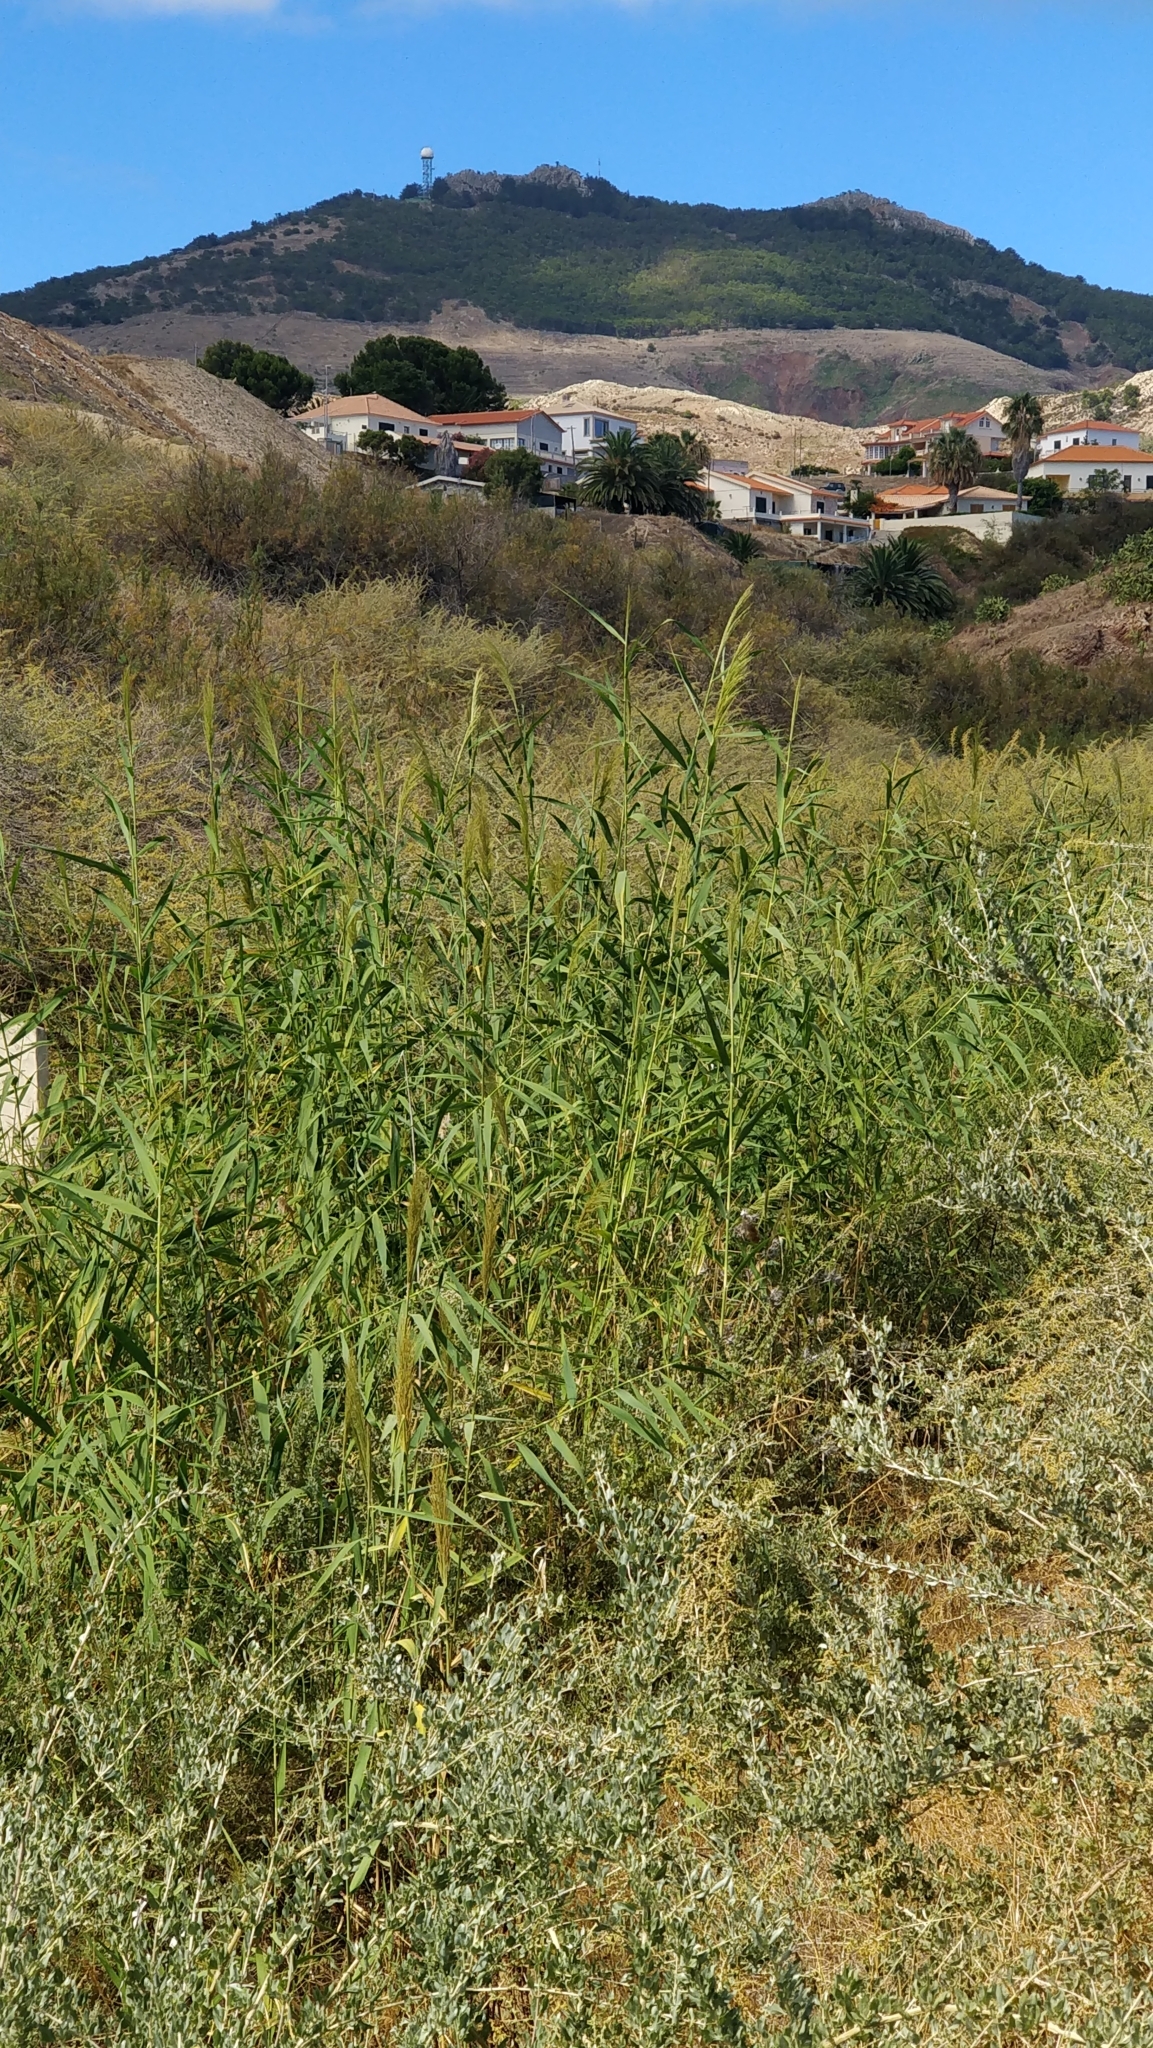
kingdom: Plantae
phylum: Tracheophyta
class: Liliopsida
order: Poales
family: Poaceae
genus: Phragmites
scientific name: Phragmites australis
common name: Common reed
